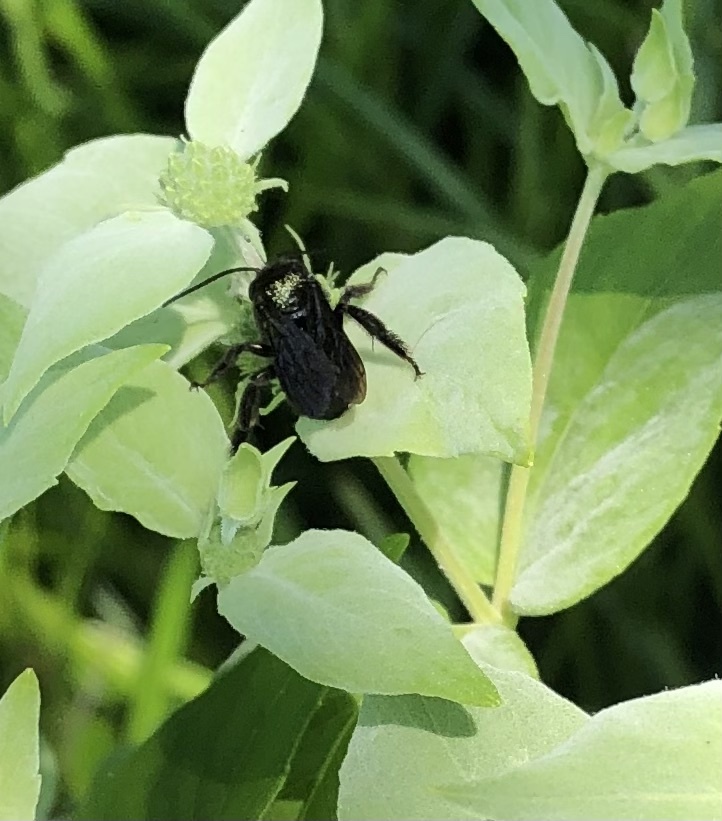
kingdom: Animalia
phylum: Arthropoda
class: Insecta
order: Hymenoptera
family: Apidae
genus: Melissodes
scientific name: Melissodes bimaculatus
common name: Two-spotted long-horned bee
